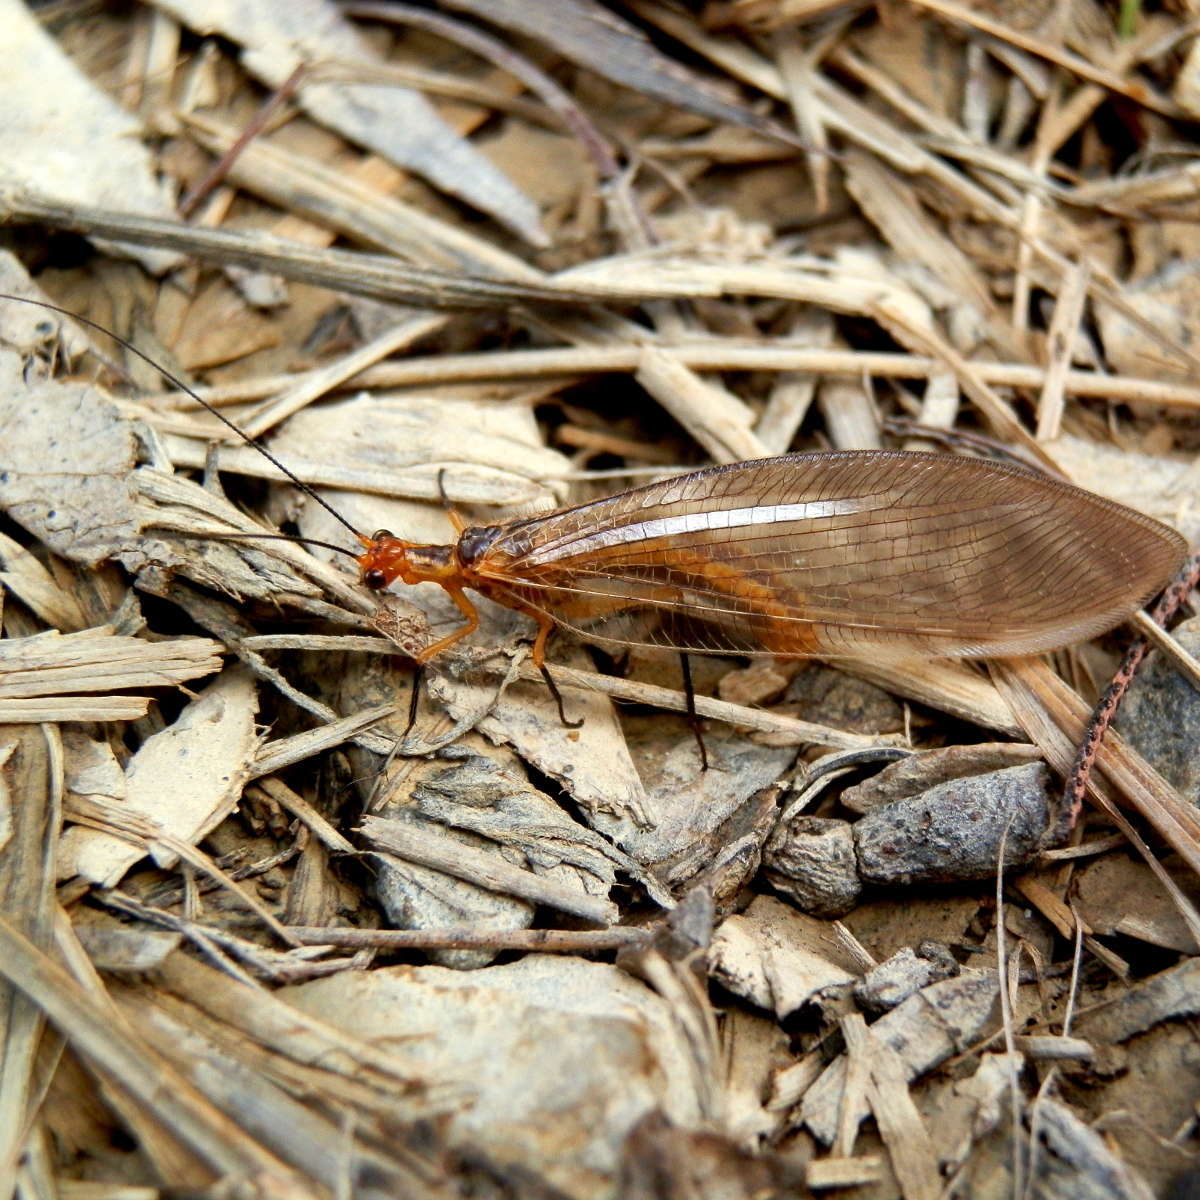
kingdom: Animalia
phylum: Arthropoda
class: Insecta
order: Neuroptera
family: Osmylidae
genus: Stenolysmus
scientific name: Stenolysmus extraneus
